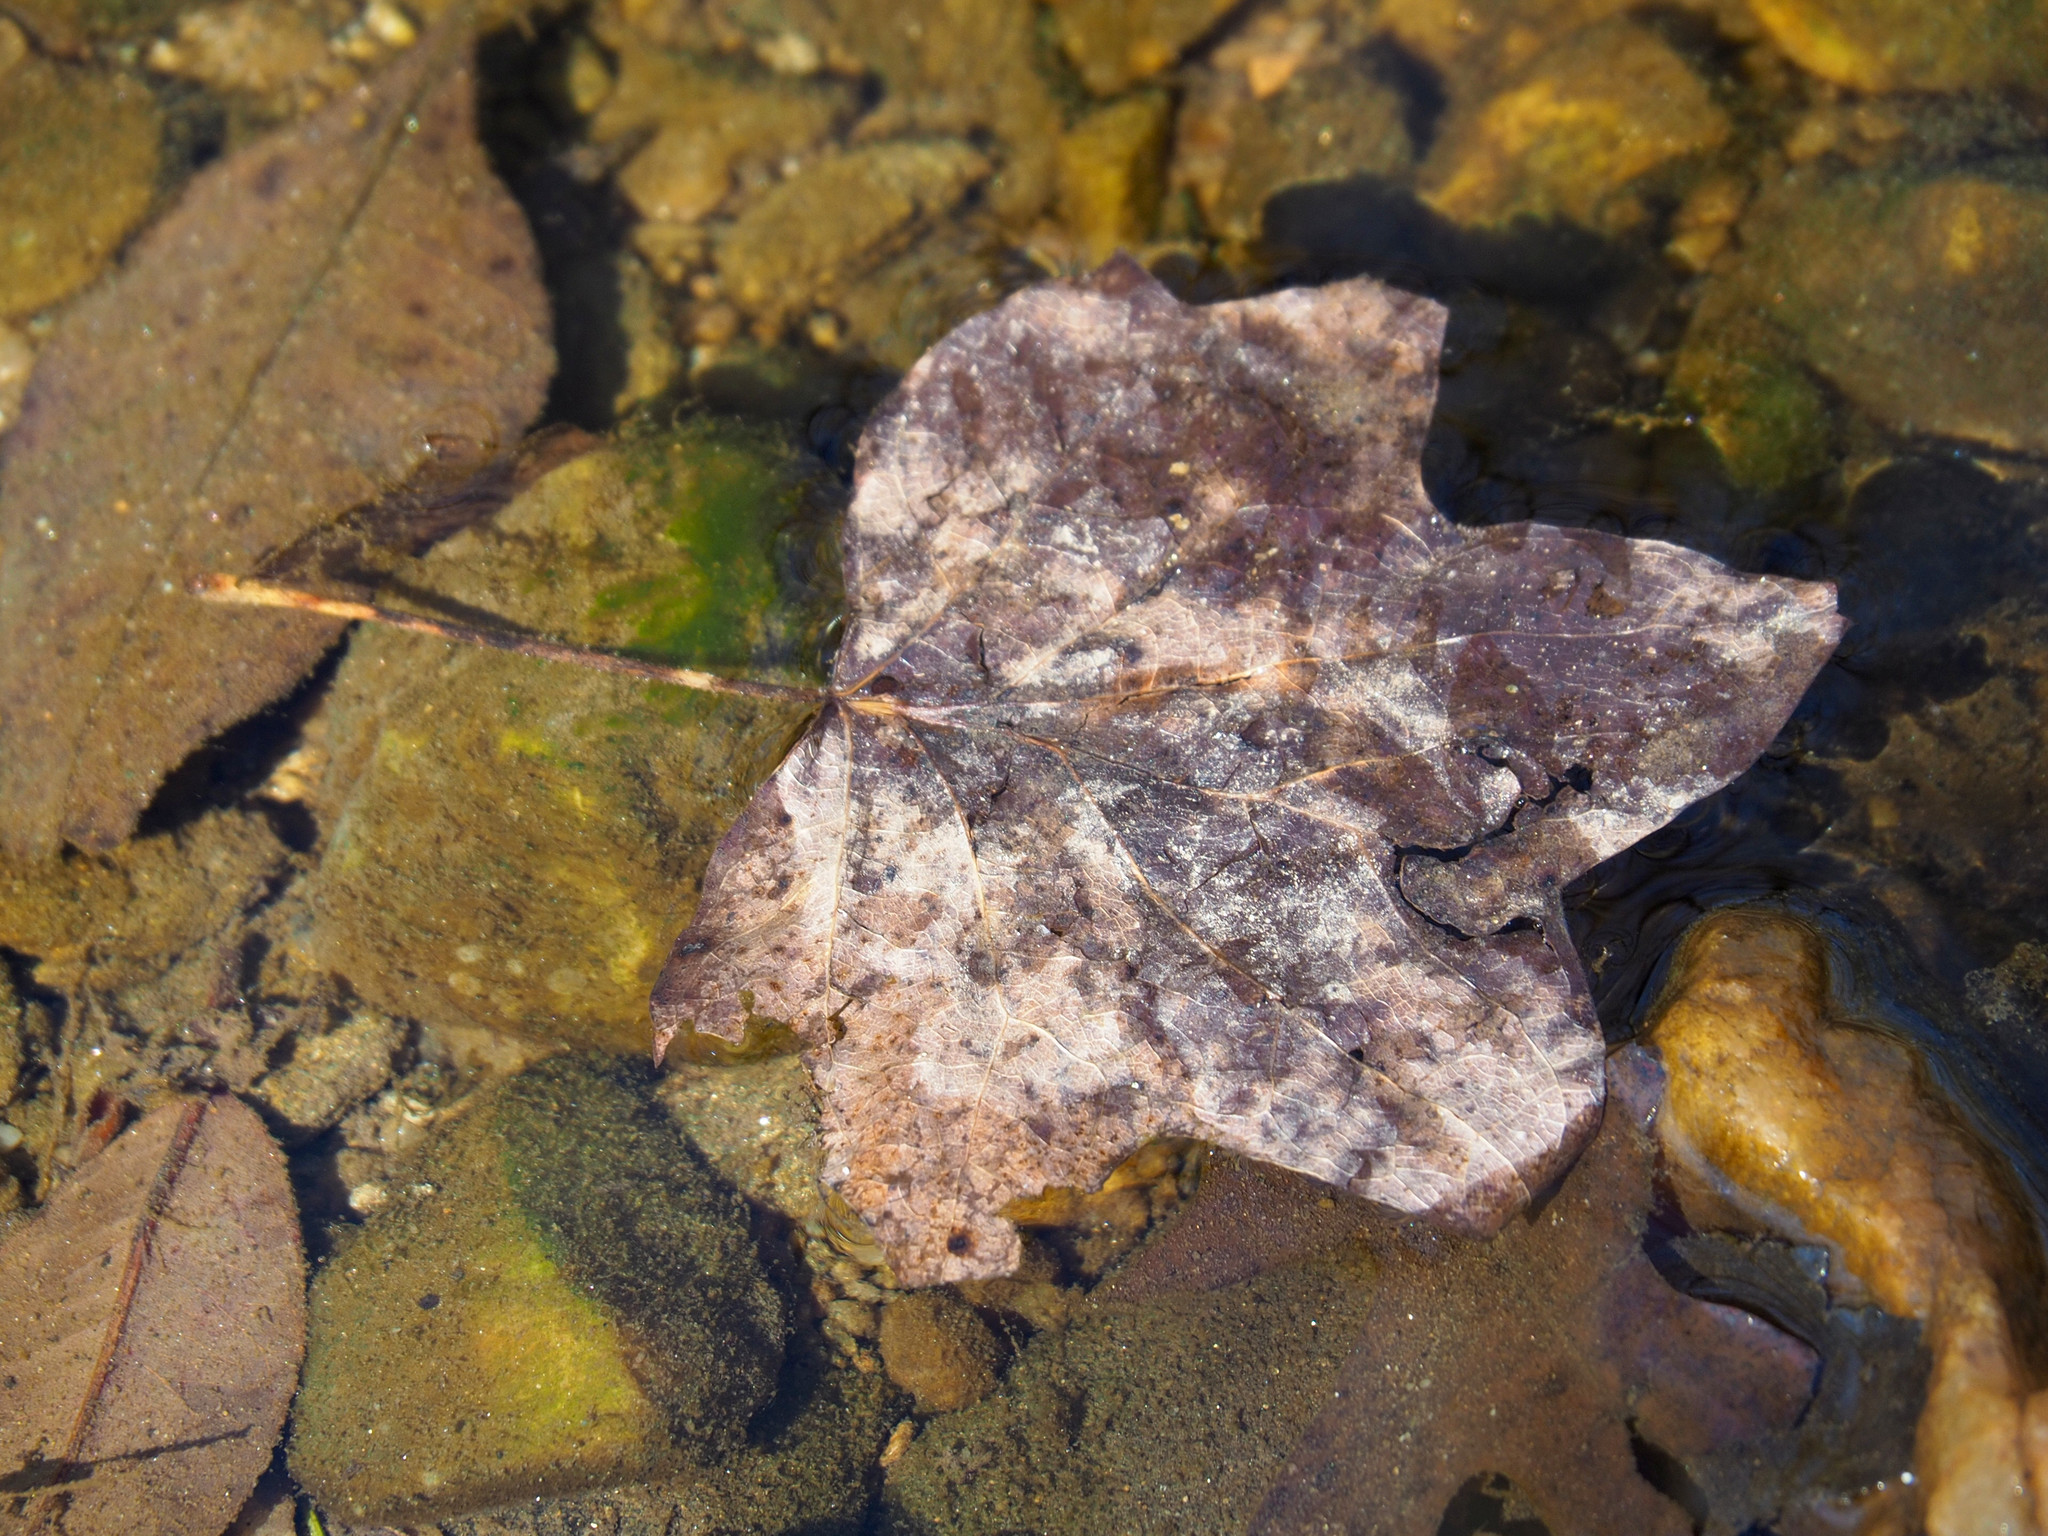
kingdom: Plantae
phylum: Tracheophyta
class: Magnoliopsida
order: Magnoliales
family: Magnoliaceae
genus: Liriodendron
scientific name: Liriodendron tulipifera
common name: Tulip tree
